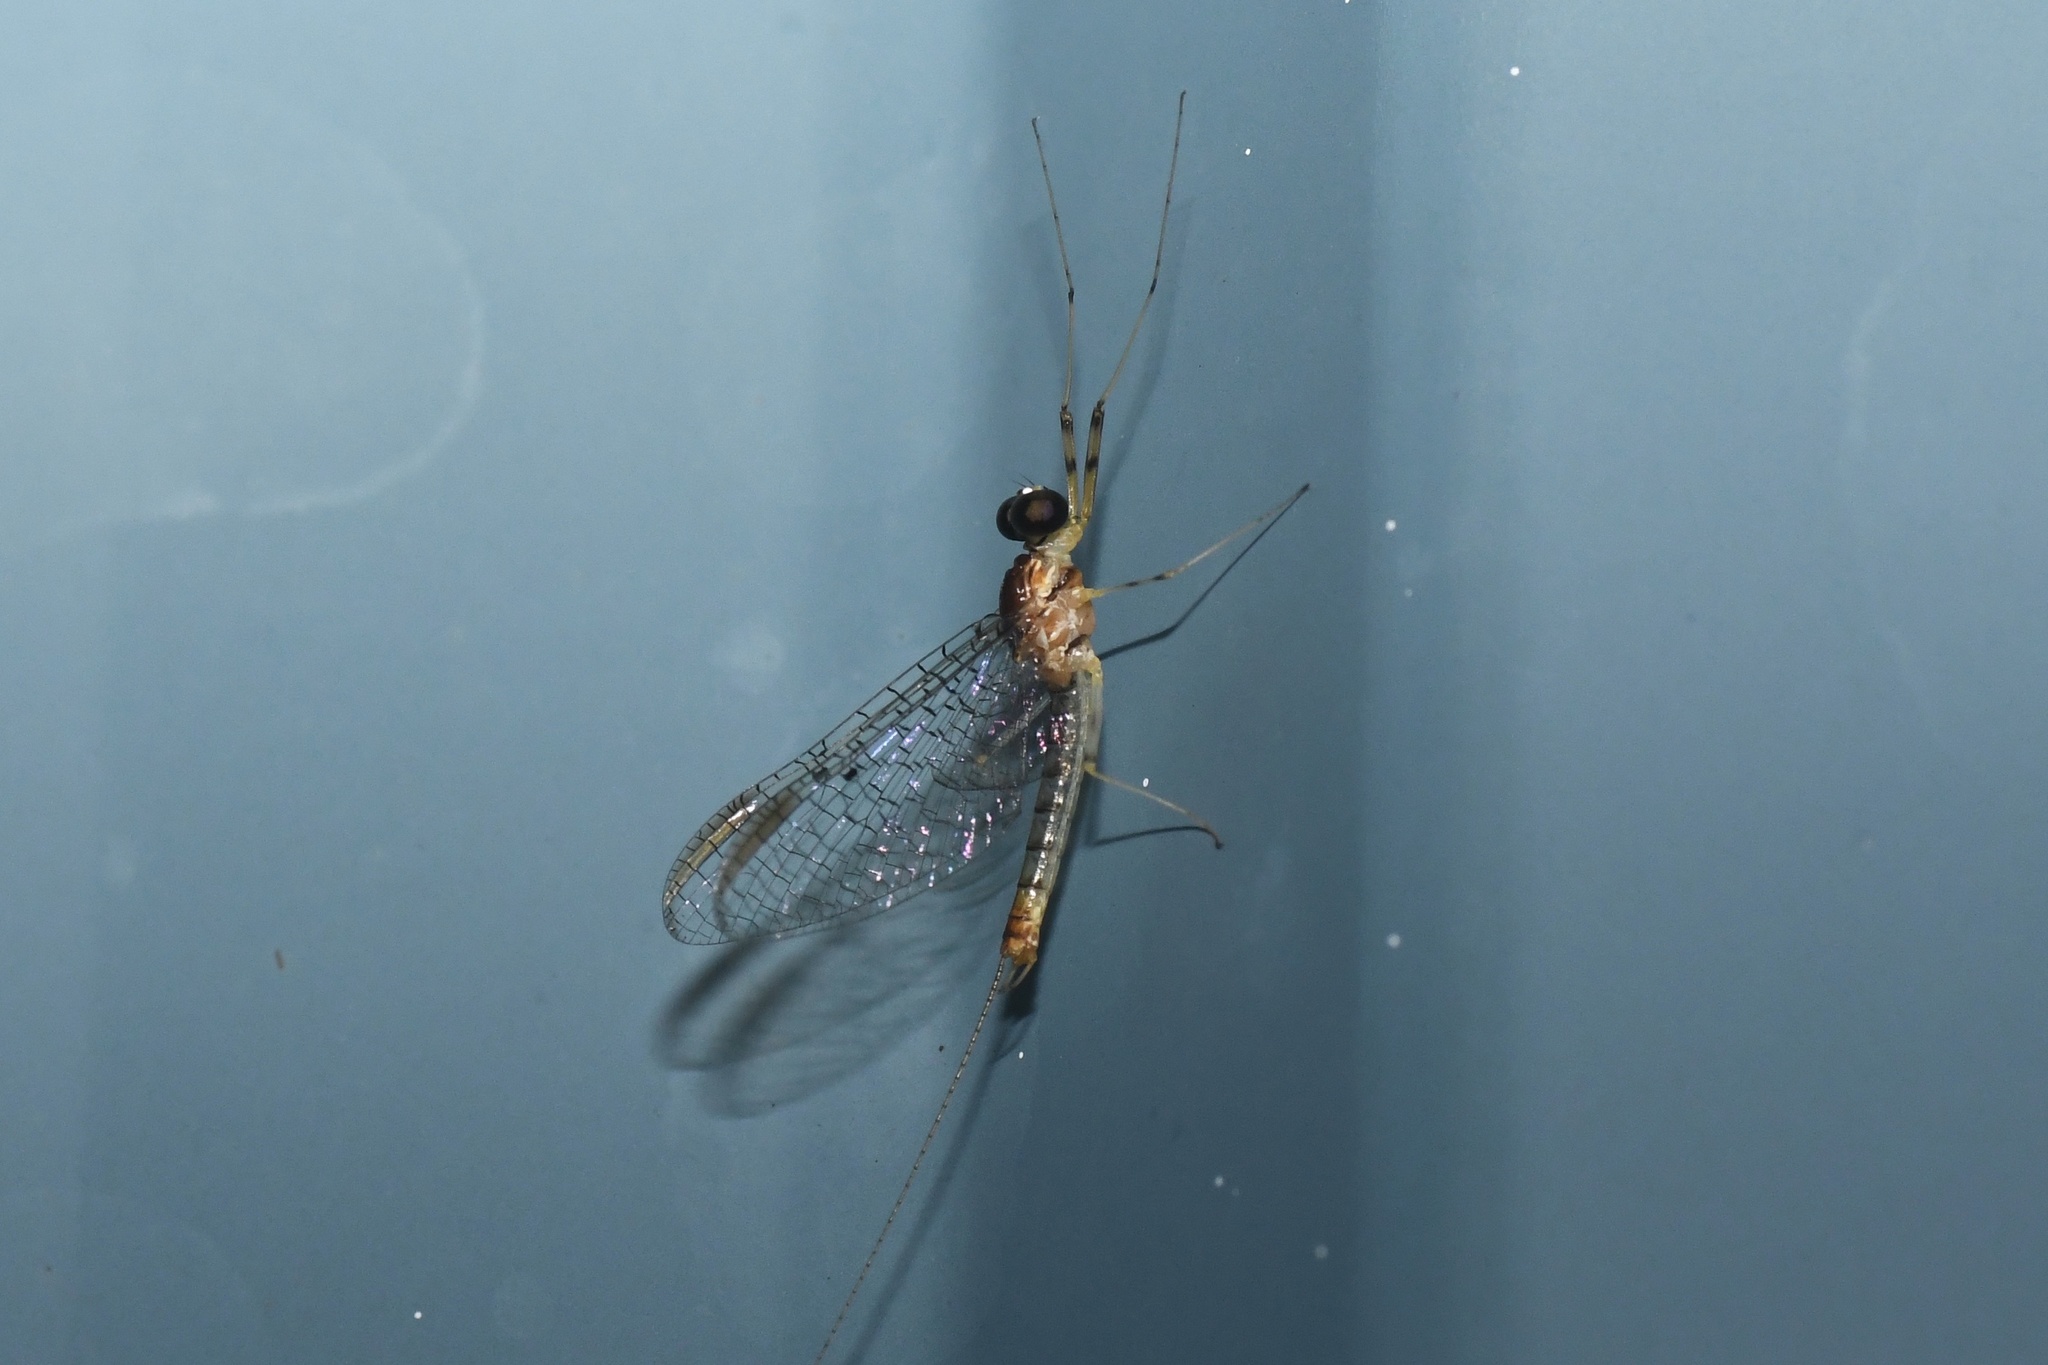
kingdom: Animalia
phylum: Arthropoda
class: Insecta
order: Ephemeroptera
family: Heptageniidae
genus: Stenacron
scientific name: Stenacron interpunctatum
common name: Orange cahill
